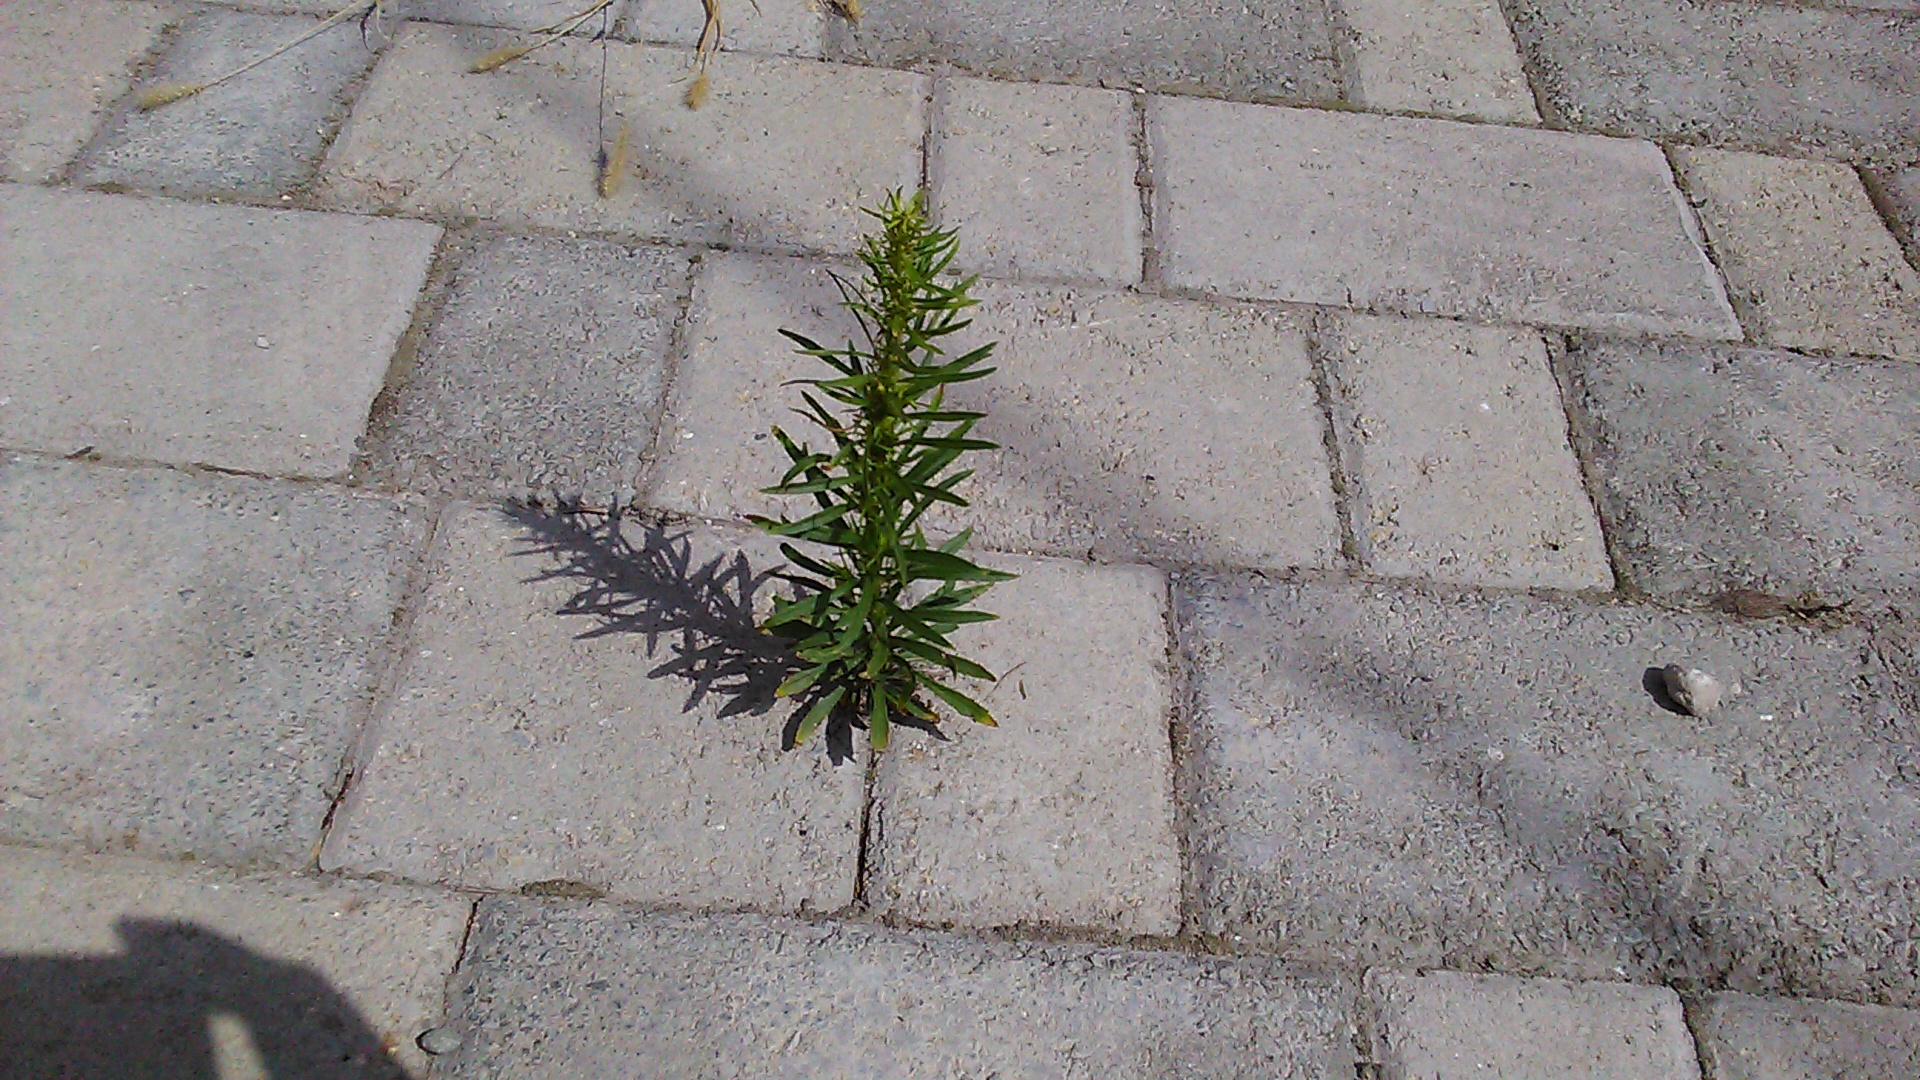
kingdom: Plantae
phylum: Tracheophyta
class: Magnoliopsida
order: Asterales
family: Asteraceae
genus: Erigeron
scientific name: Erigeron canadensis
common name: Canadian fleabane
